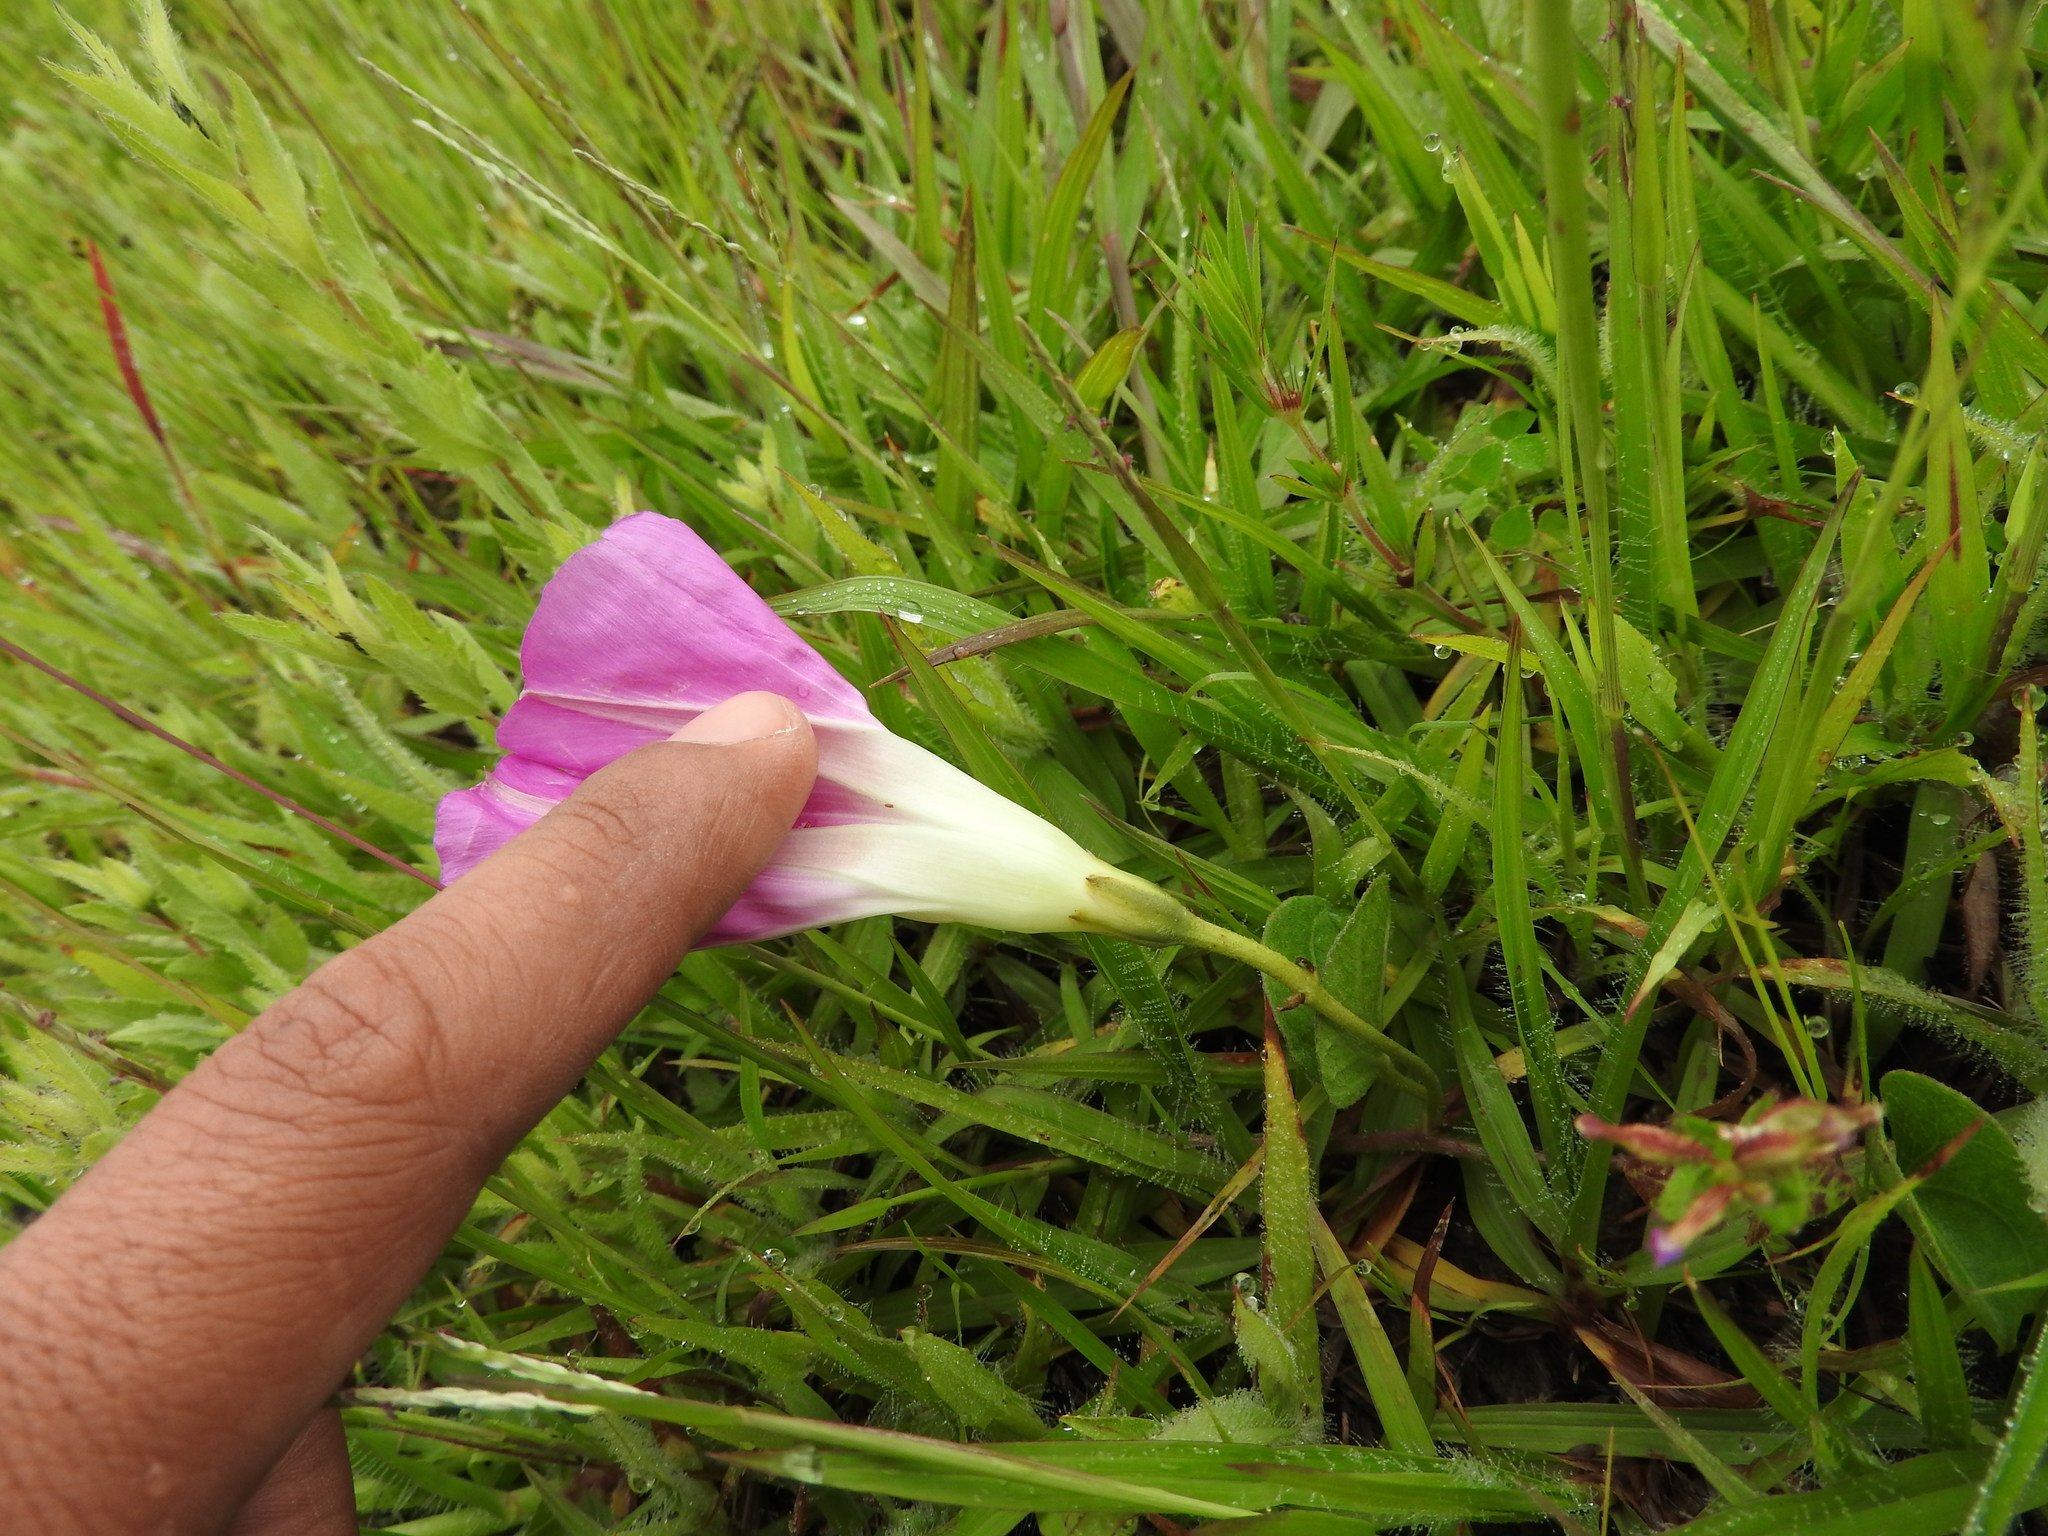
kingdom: Plantae
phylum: Tracheophyta
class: Magnoliopsida
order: Solanales
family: Convolvulaceae
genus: Ipomoea
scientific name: Ipomoea hartwegii
